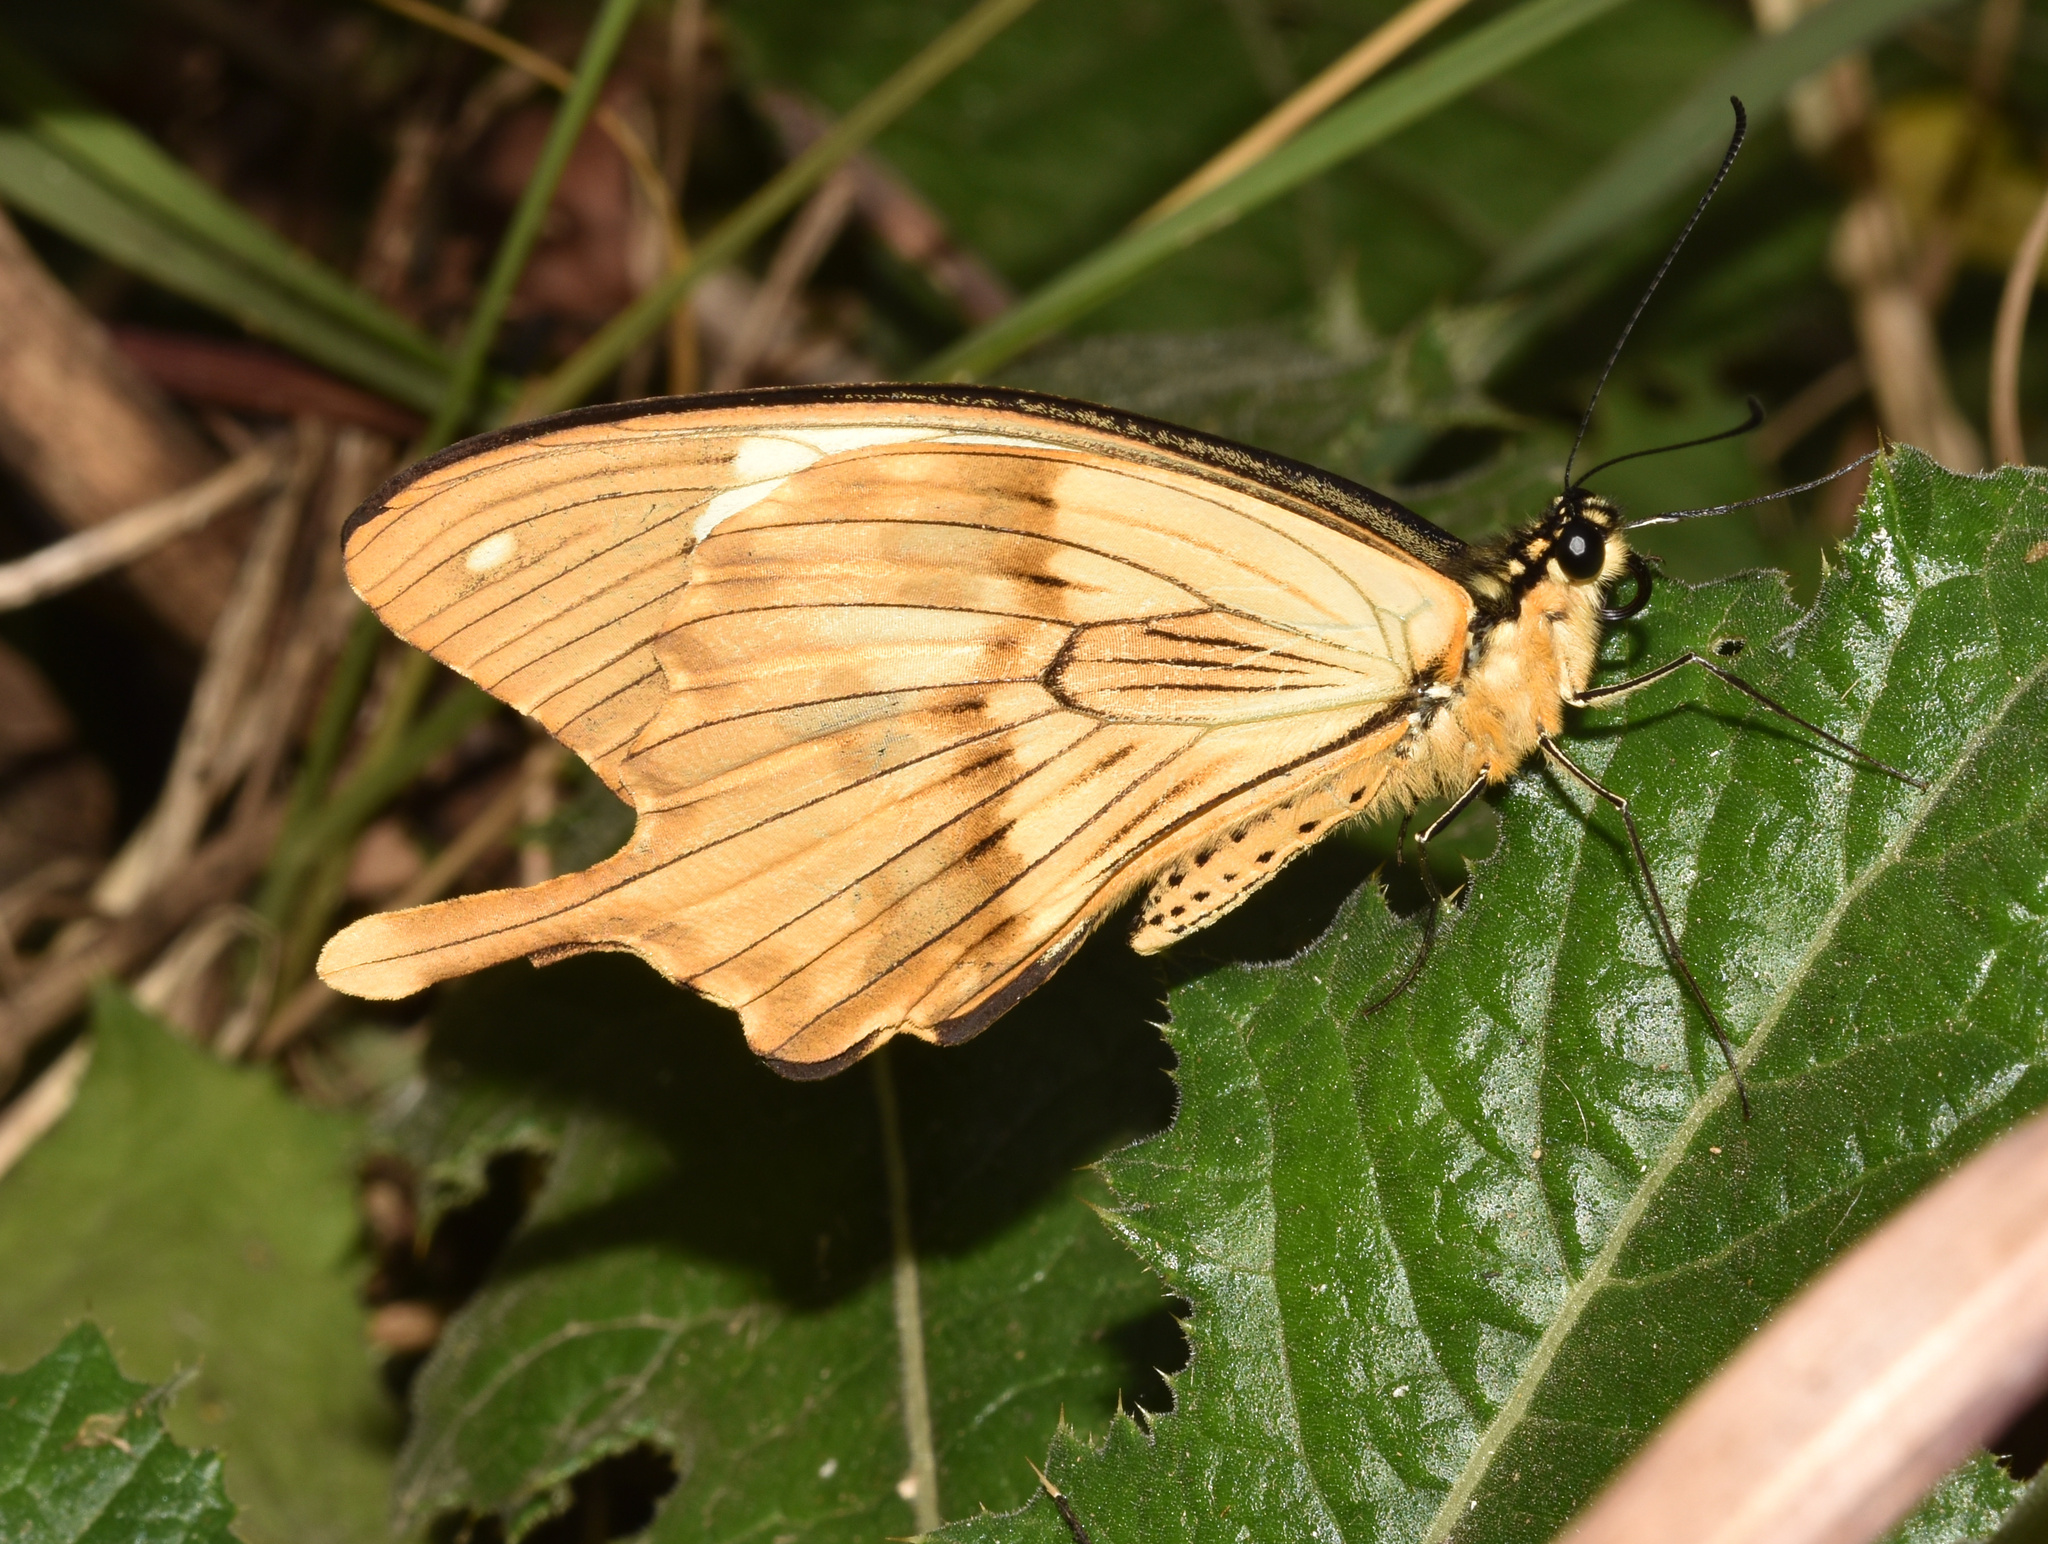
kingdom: Animalia
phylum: Arthropoda
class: Insecta
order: Lepidoptera
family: Papilionidae
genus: Papilio
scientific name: Papilio dardanus
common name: Flying handkerchief
